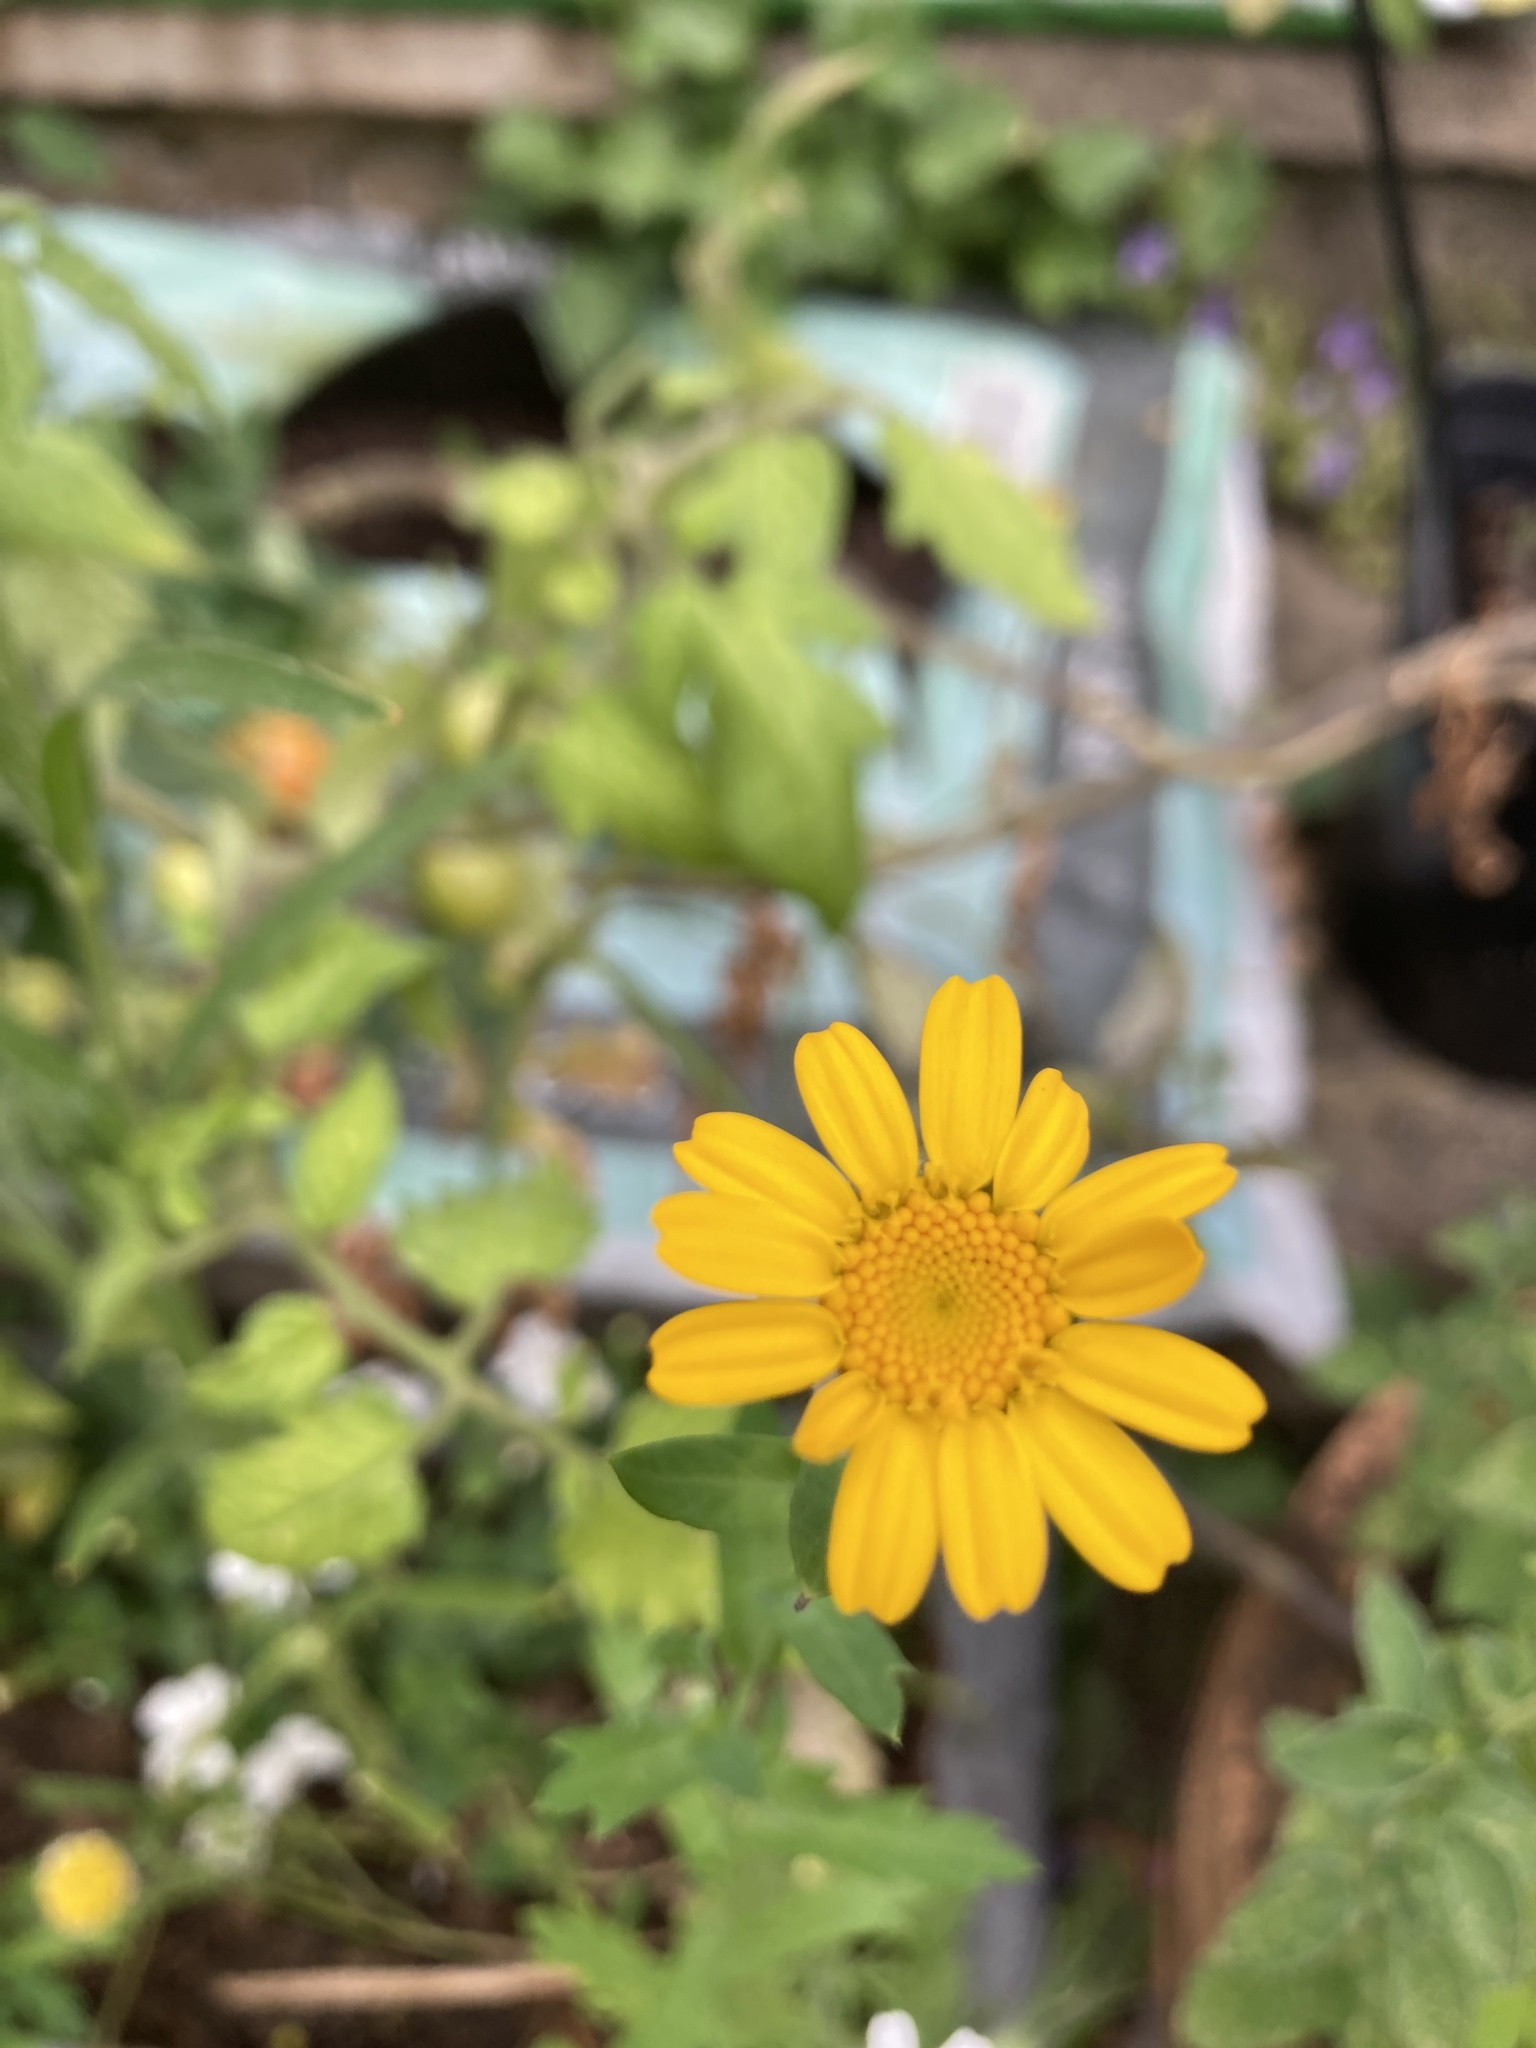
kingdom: Plantae
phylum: Tracheophyta
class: Magnoliopsida
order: Asterales
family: Asteraceae
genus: Glebionis
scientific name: Glebionis segetum
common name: Corndaisy
